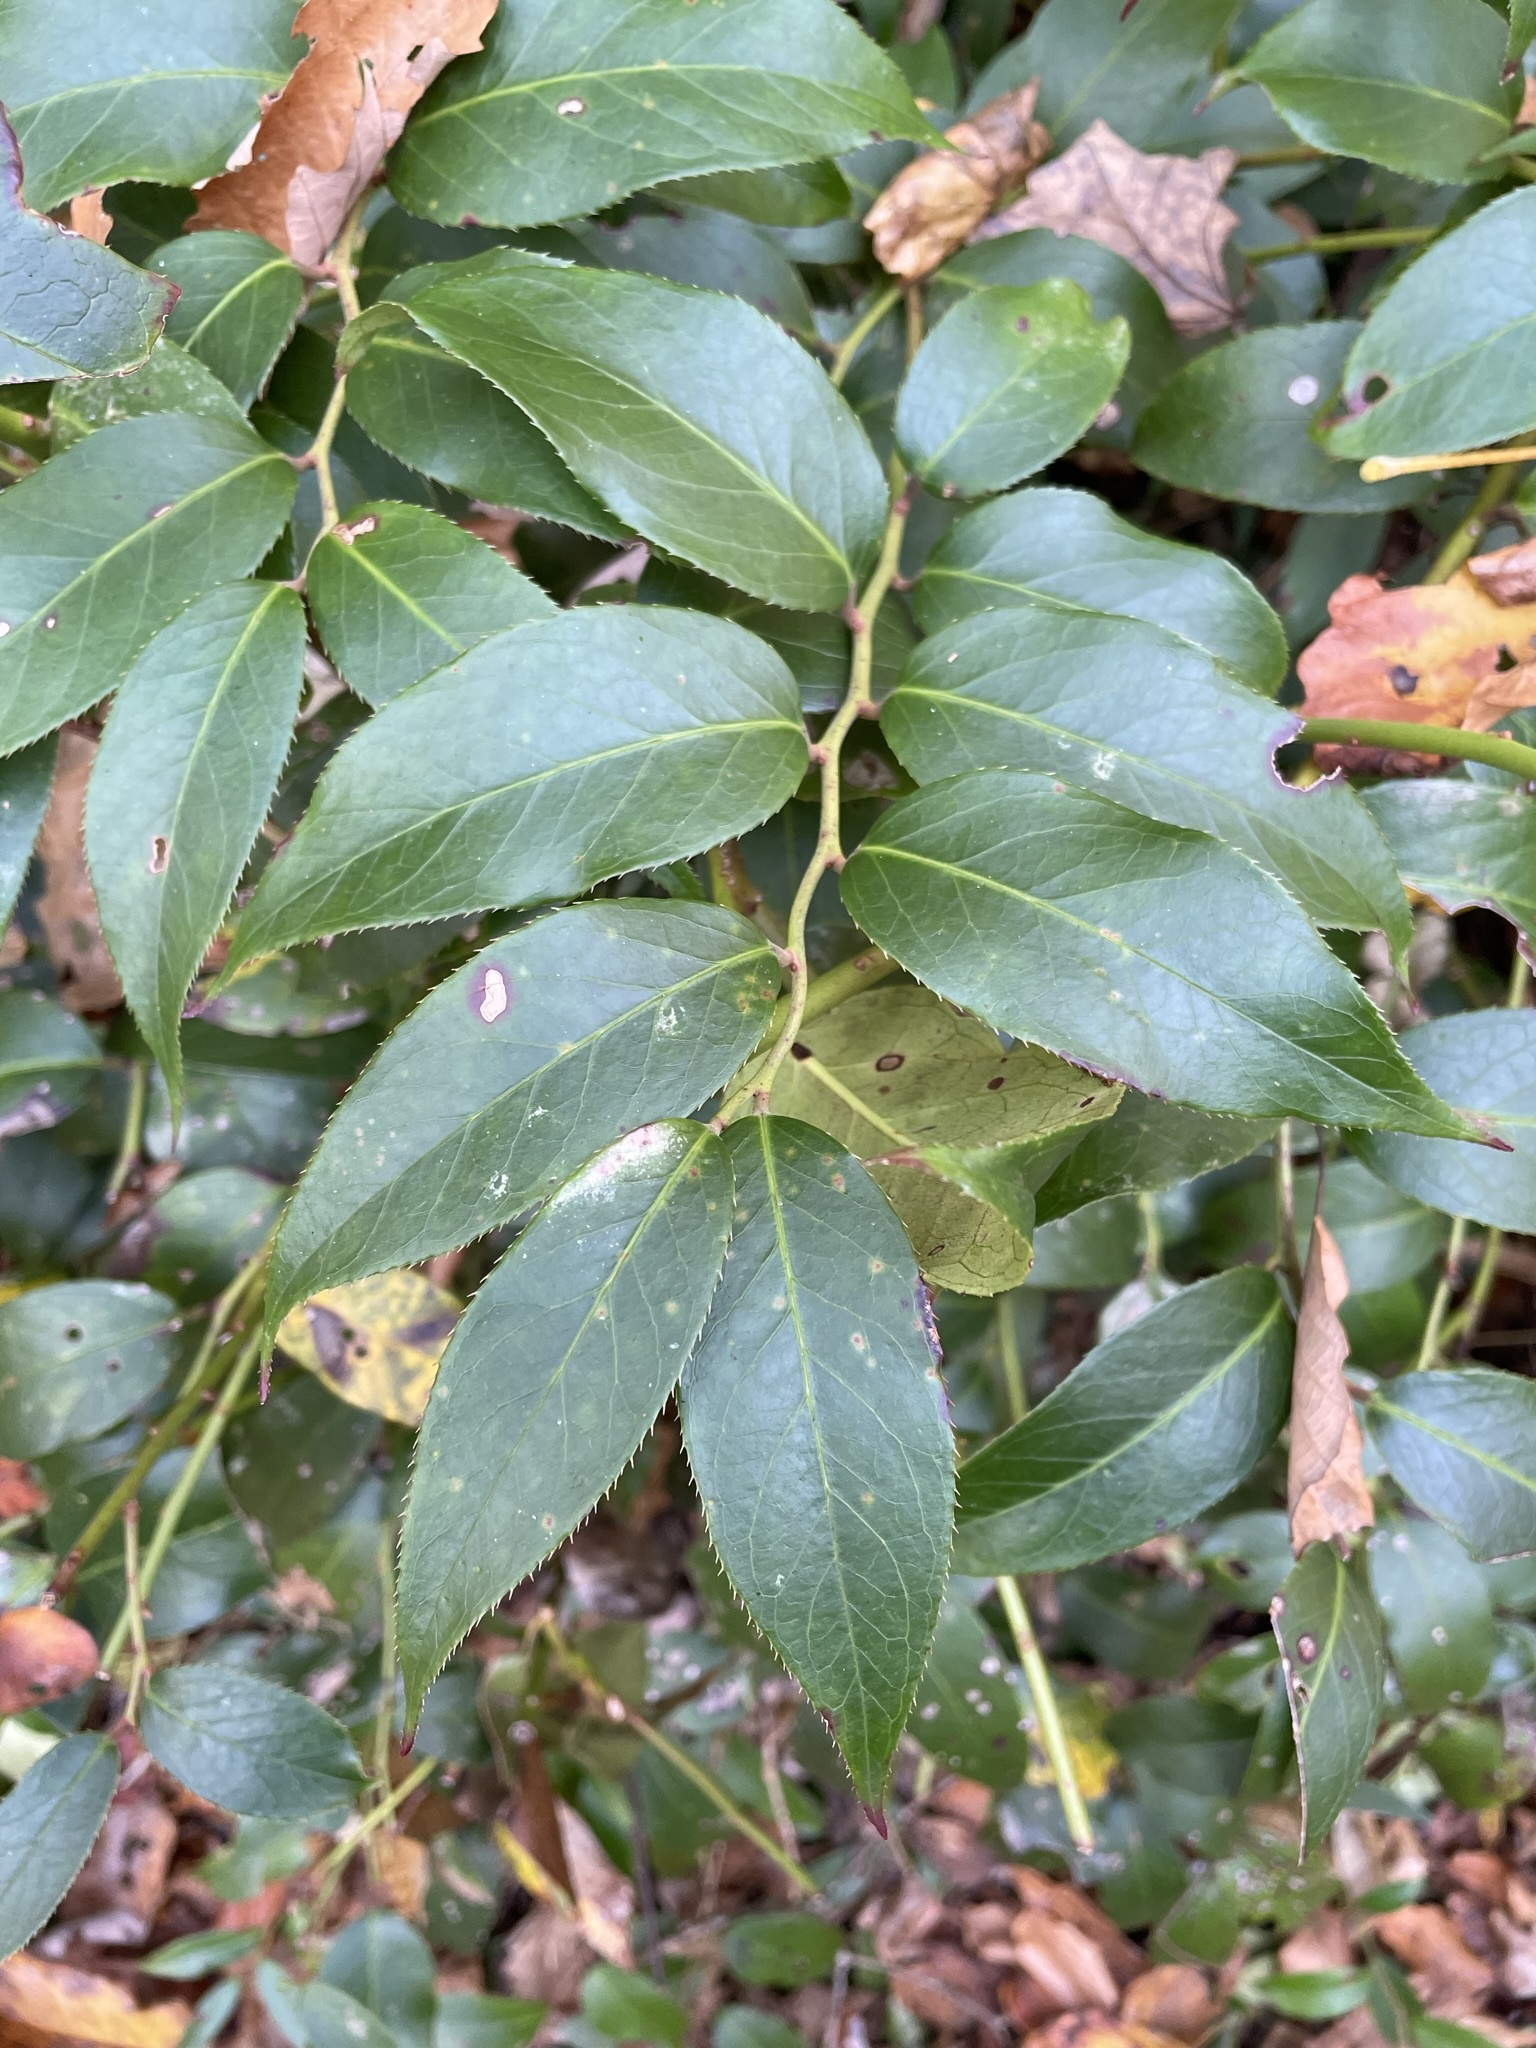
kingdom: Plantae
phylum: Tracheophyta
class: Magnoliopsida
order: Ericales
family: Ericaceae
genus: Leucothoe
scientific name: Leucothoe fontanesiana
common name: Fetterbush
